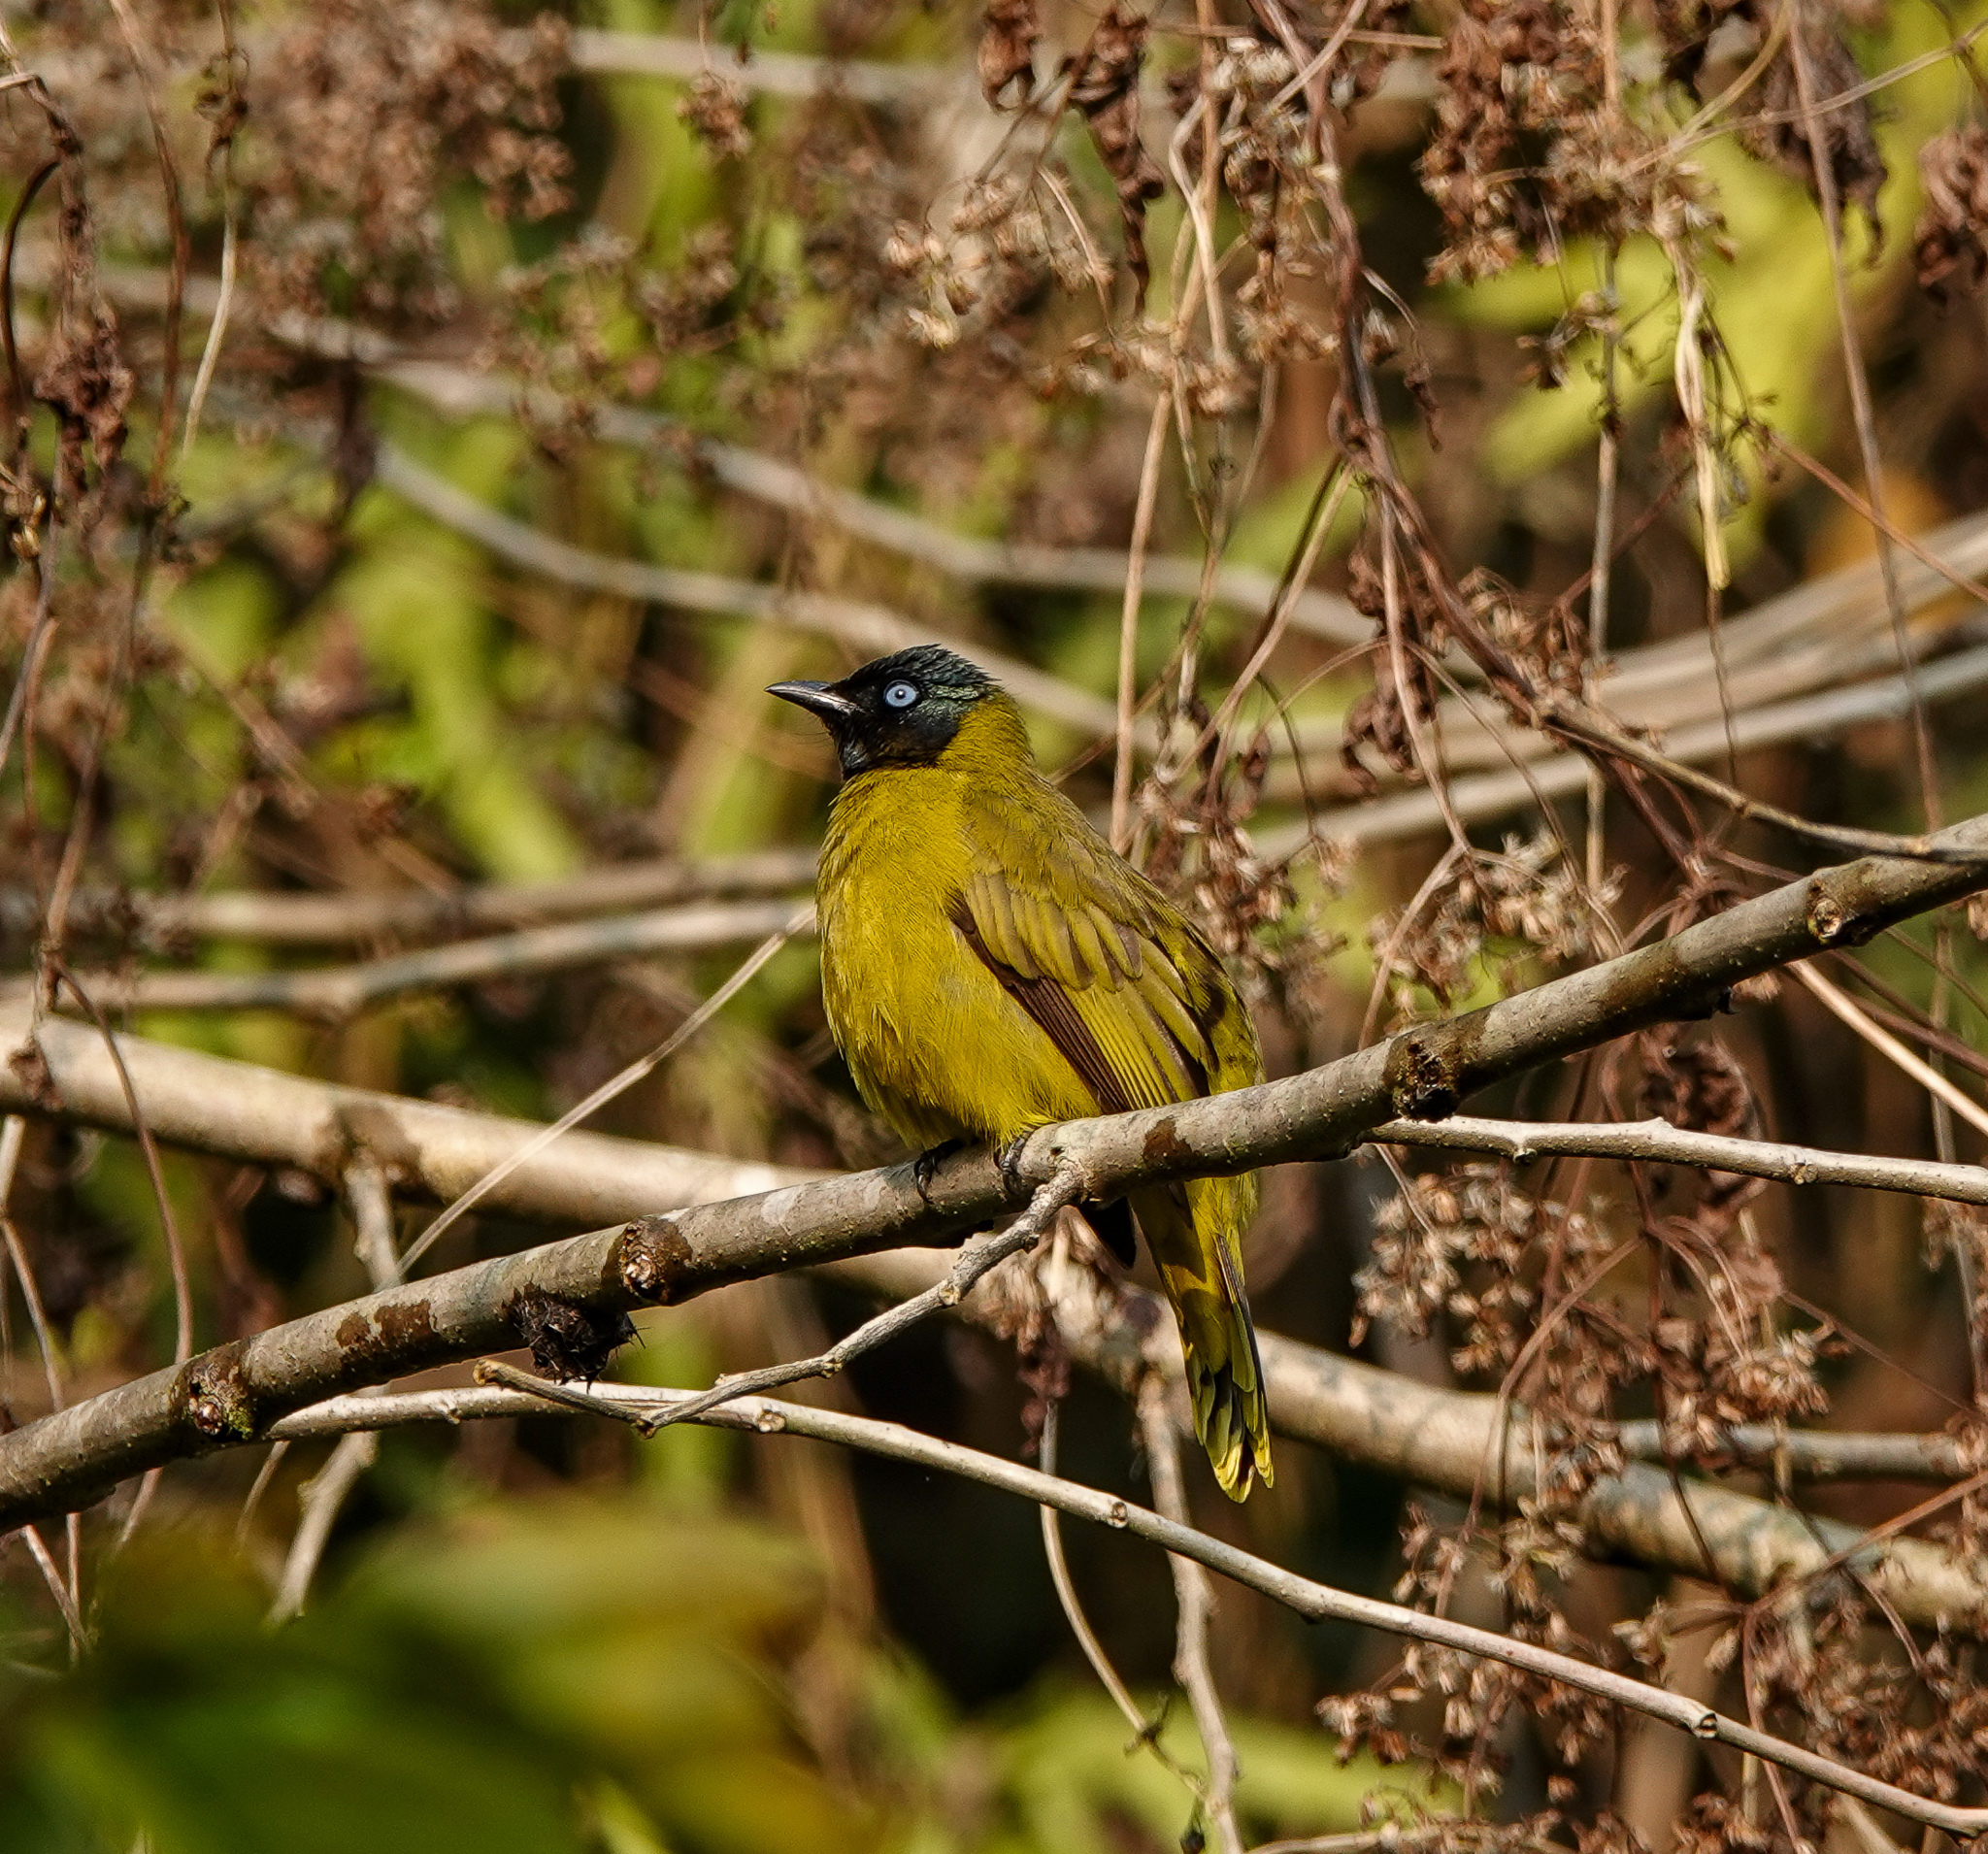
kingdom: Animalia
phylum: Chordata
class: Aves
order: Passeriformes
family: Pycnonotidae
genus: Microtarsus
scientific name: Microtarsus
